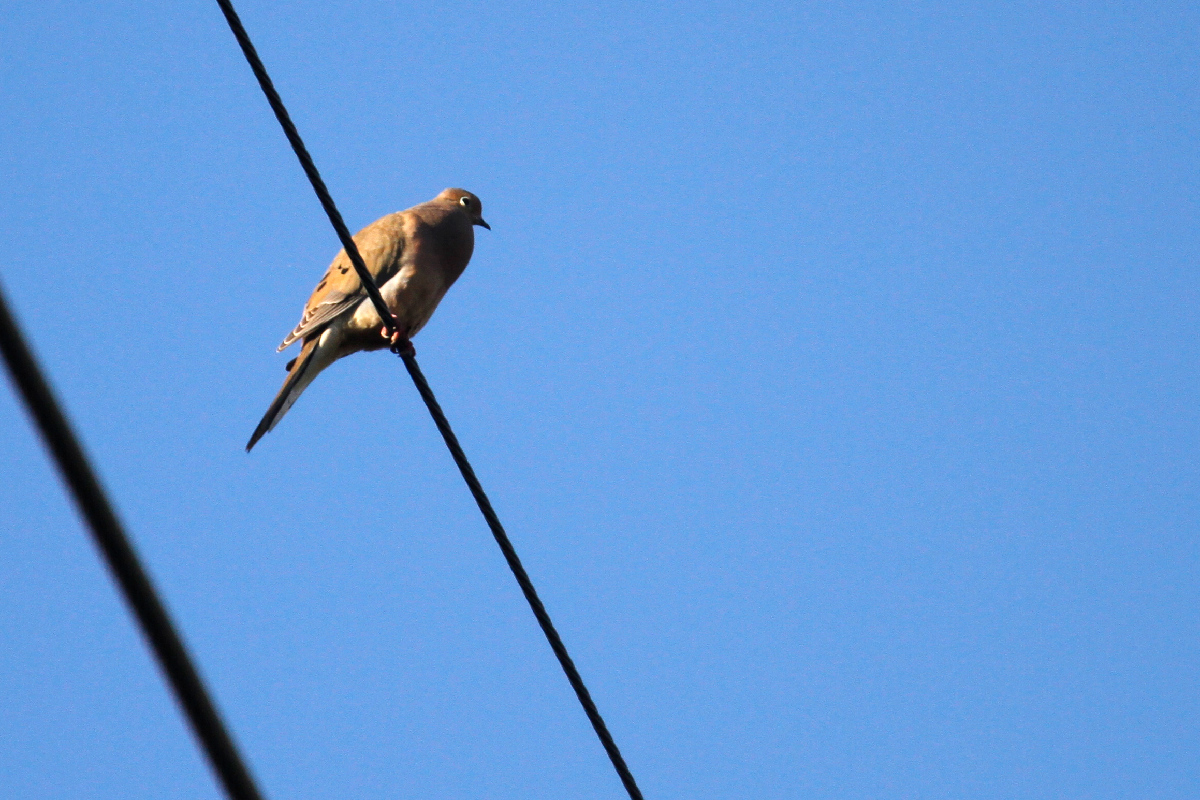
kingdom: Animalia
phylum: Chordata
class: Aves
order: Columbiformes
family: Columbidae
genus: Zenaida
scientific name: Zenaida macroura
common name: Mourning dove
